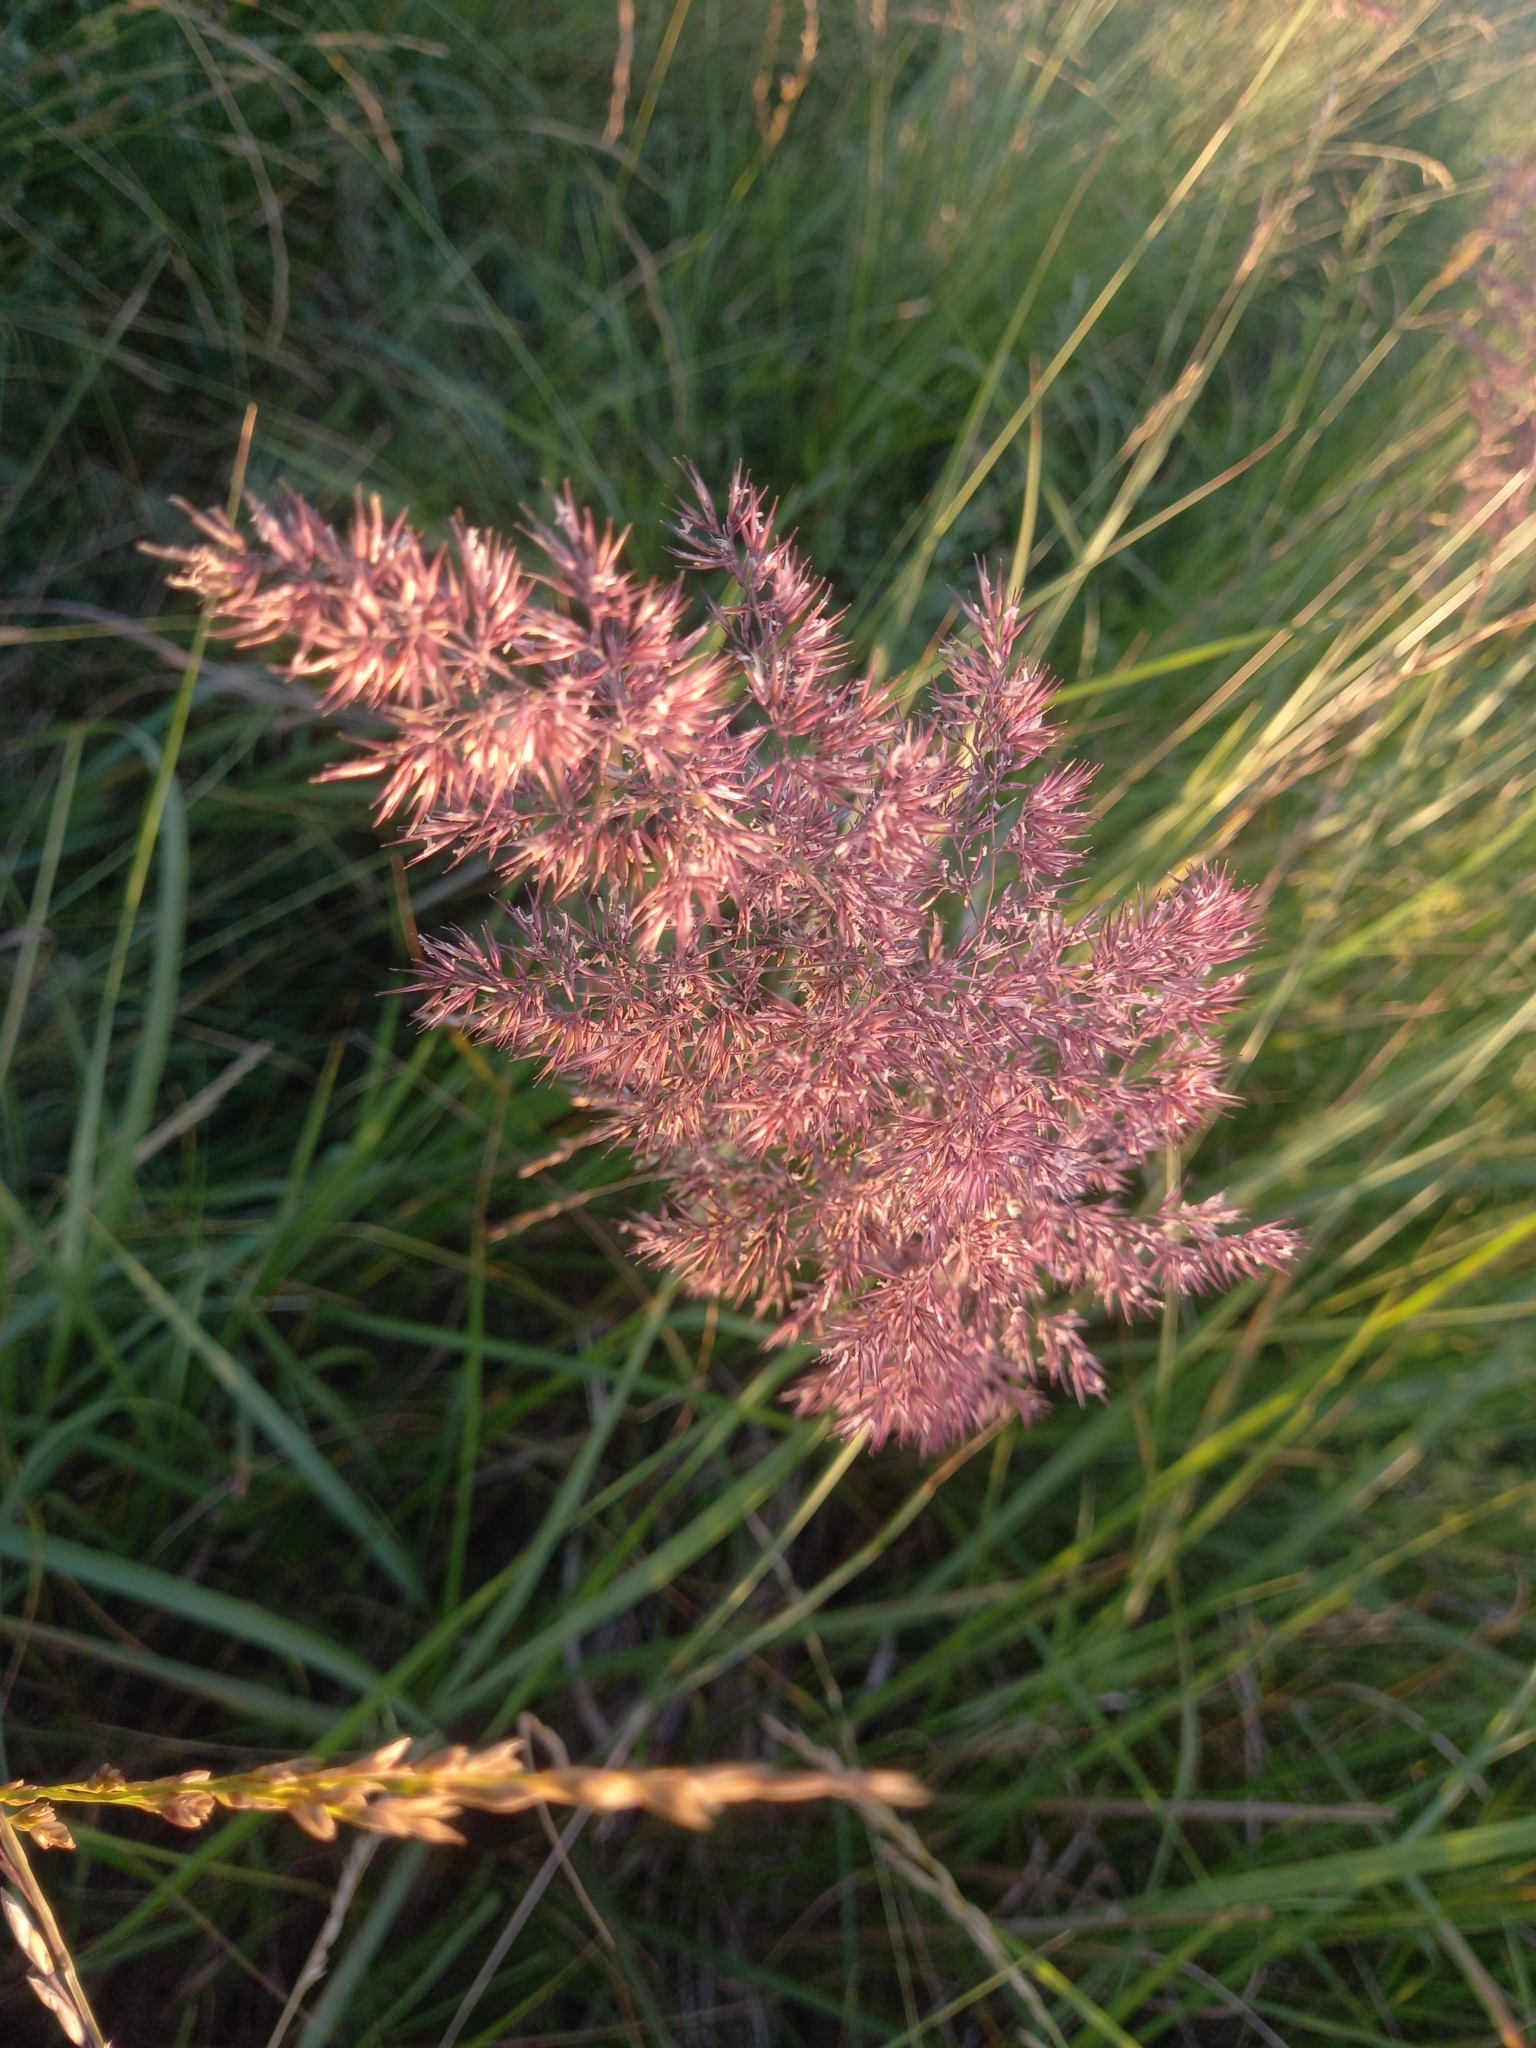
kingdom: Plantae
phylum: Tracheophyta
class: Liliopsida
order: Poales
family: Poaceae
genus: Calamagrostis
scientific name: Calamagrostis epigejos
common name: Wood small-reed
